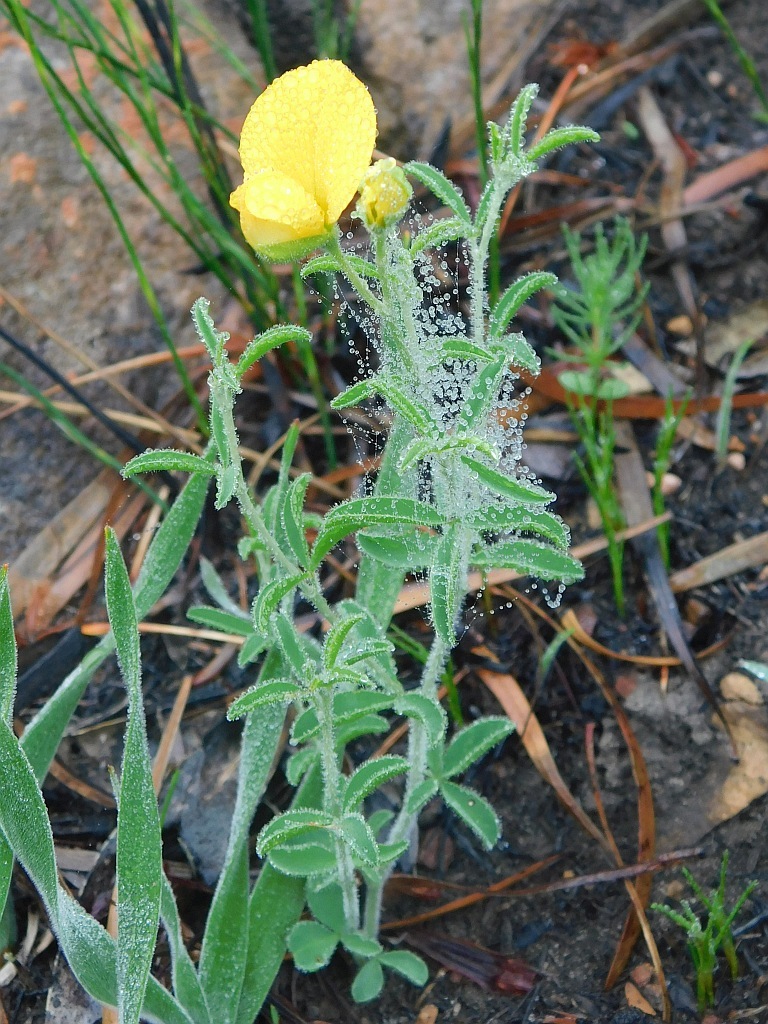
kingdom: Plantae
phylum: Tracheophyta
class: Magnoliopsida
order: Fabales
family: Fabaceae
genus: Argyrolobium
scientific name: Argyrolobium pachyphyllum
